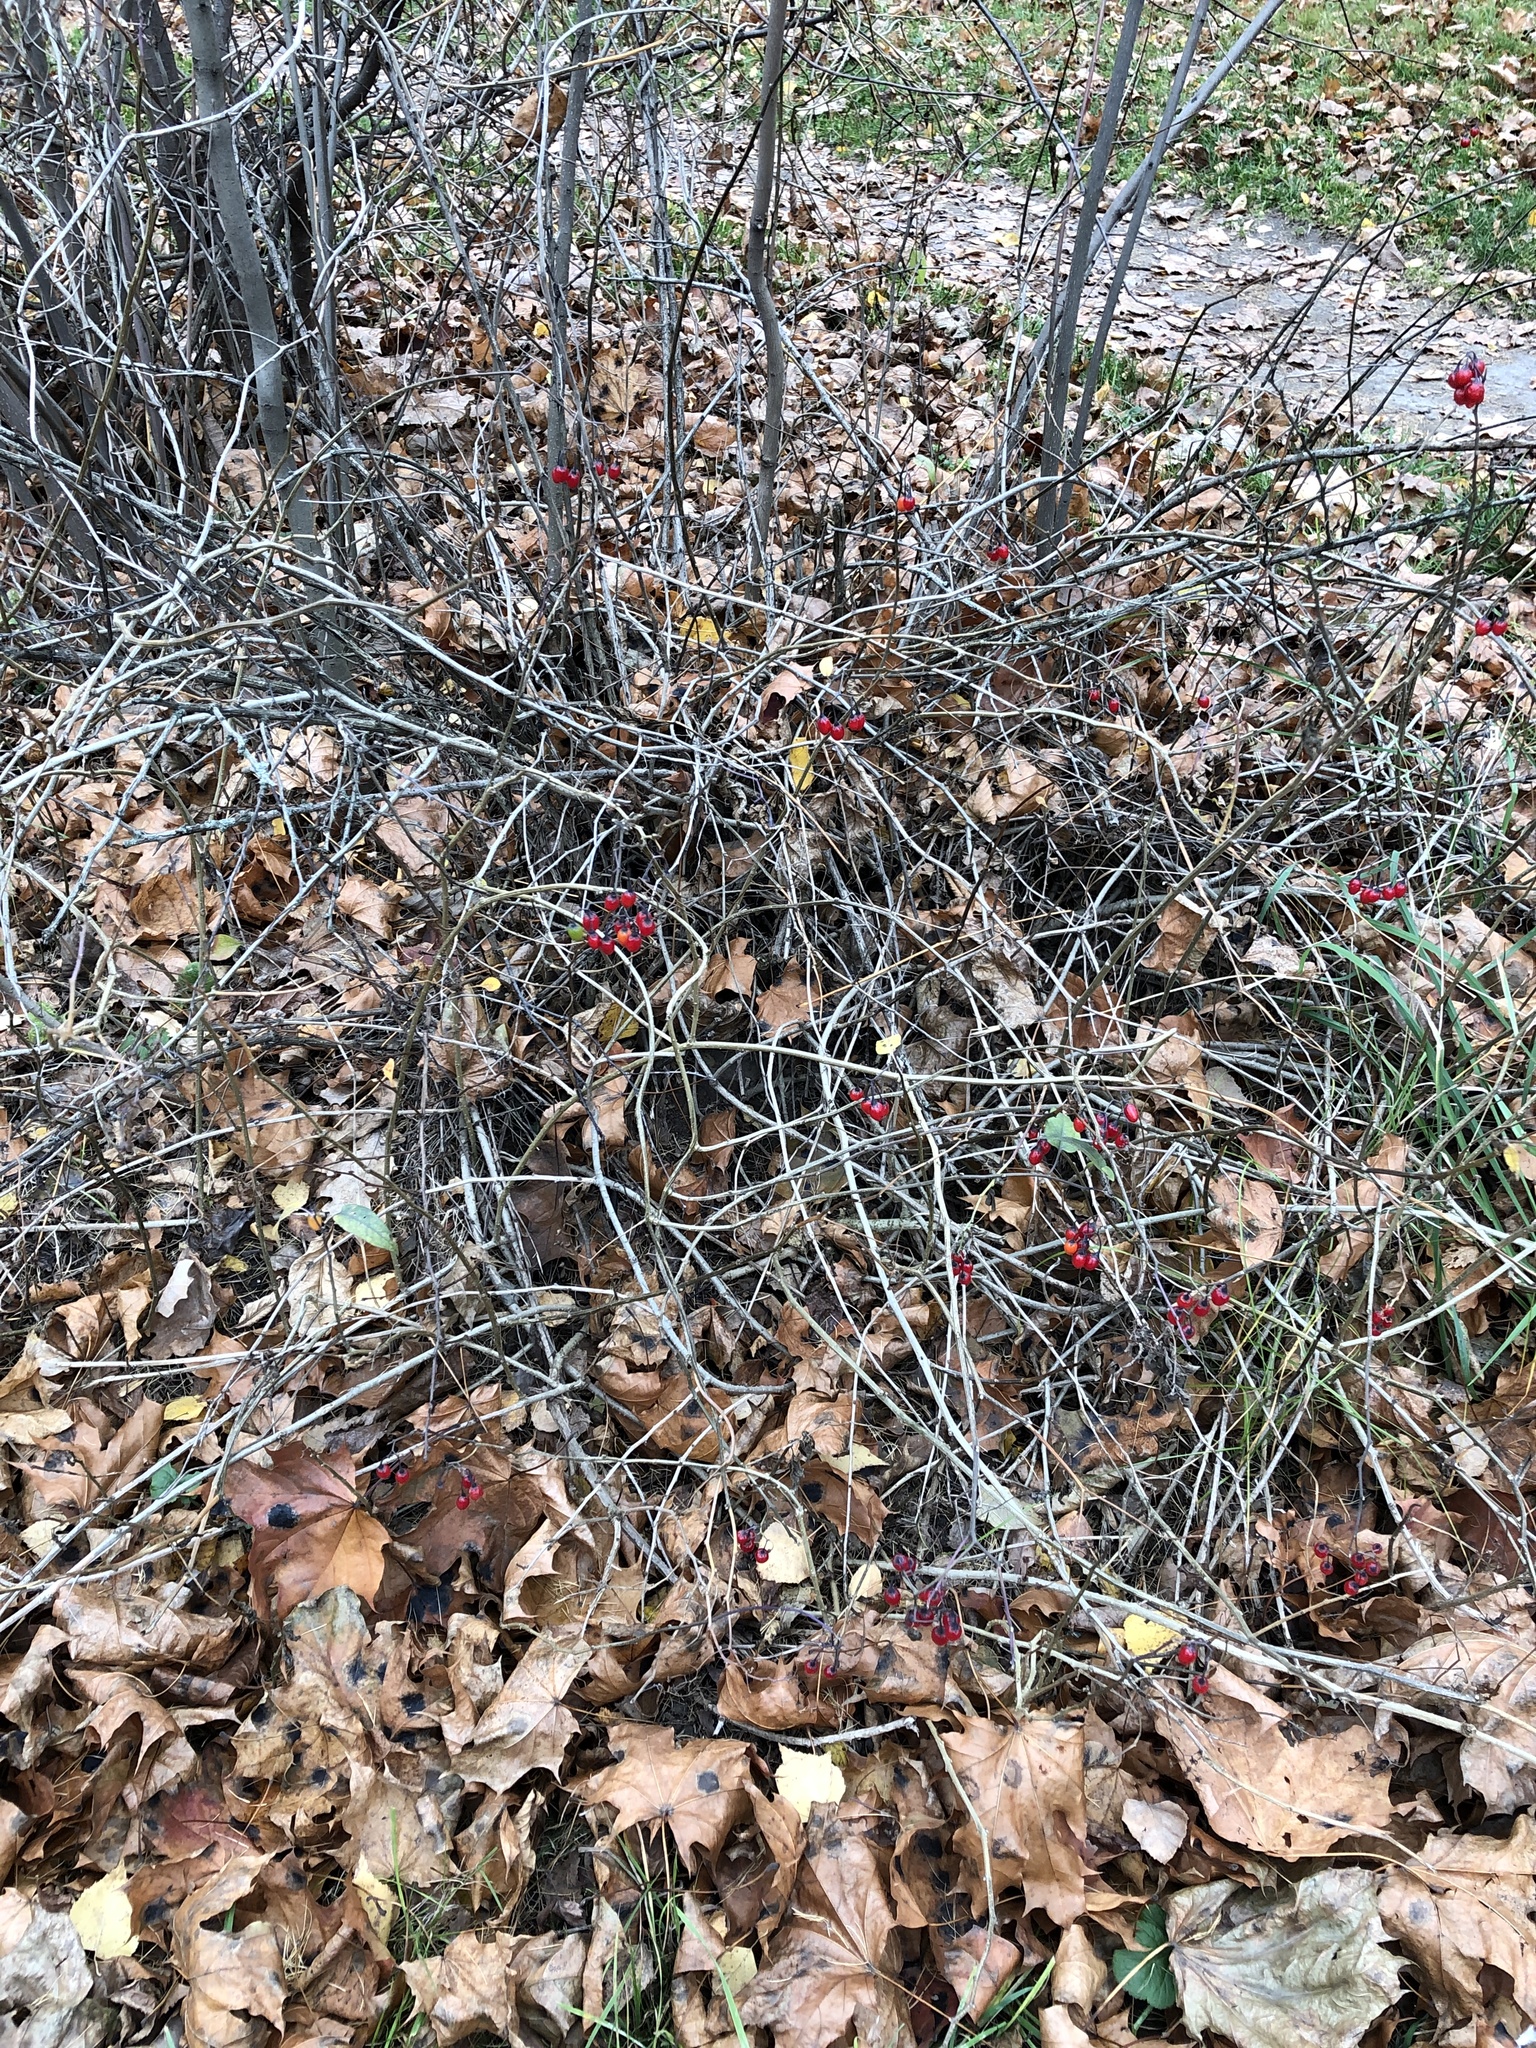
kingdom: Plantae
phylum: Tracheophyta
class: Magnoliopsida
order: Solanales
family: Solanaceae
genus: Solanum
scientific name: Solanum dulcamara
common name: Climbing nightshade
